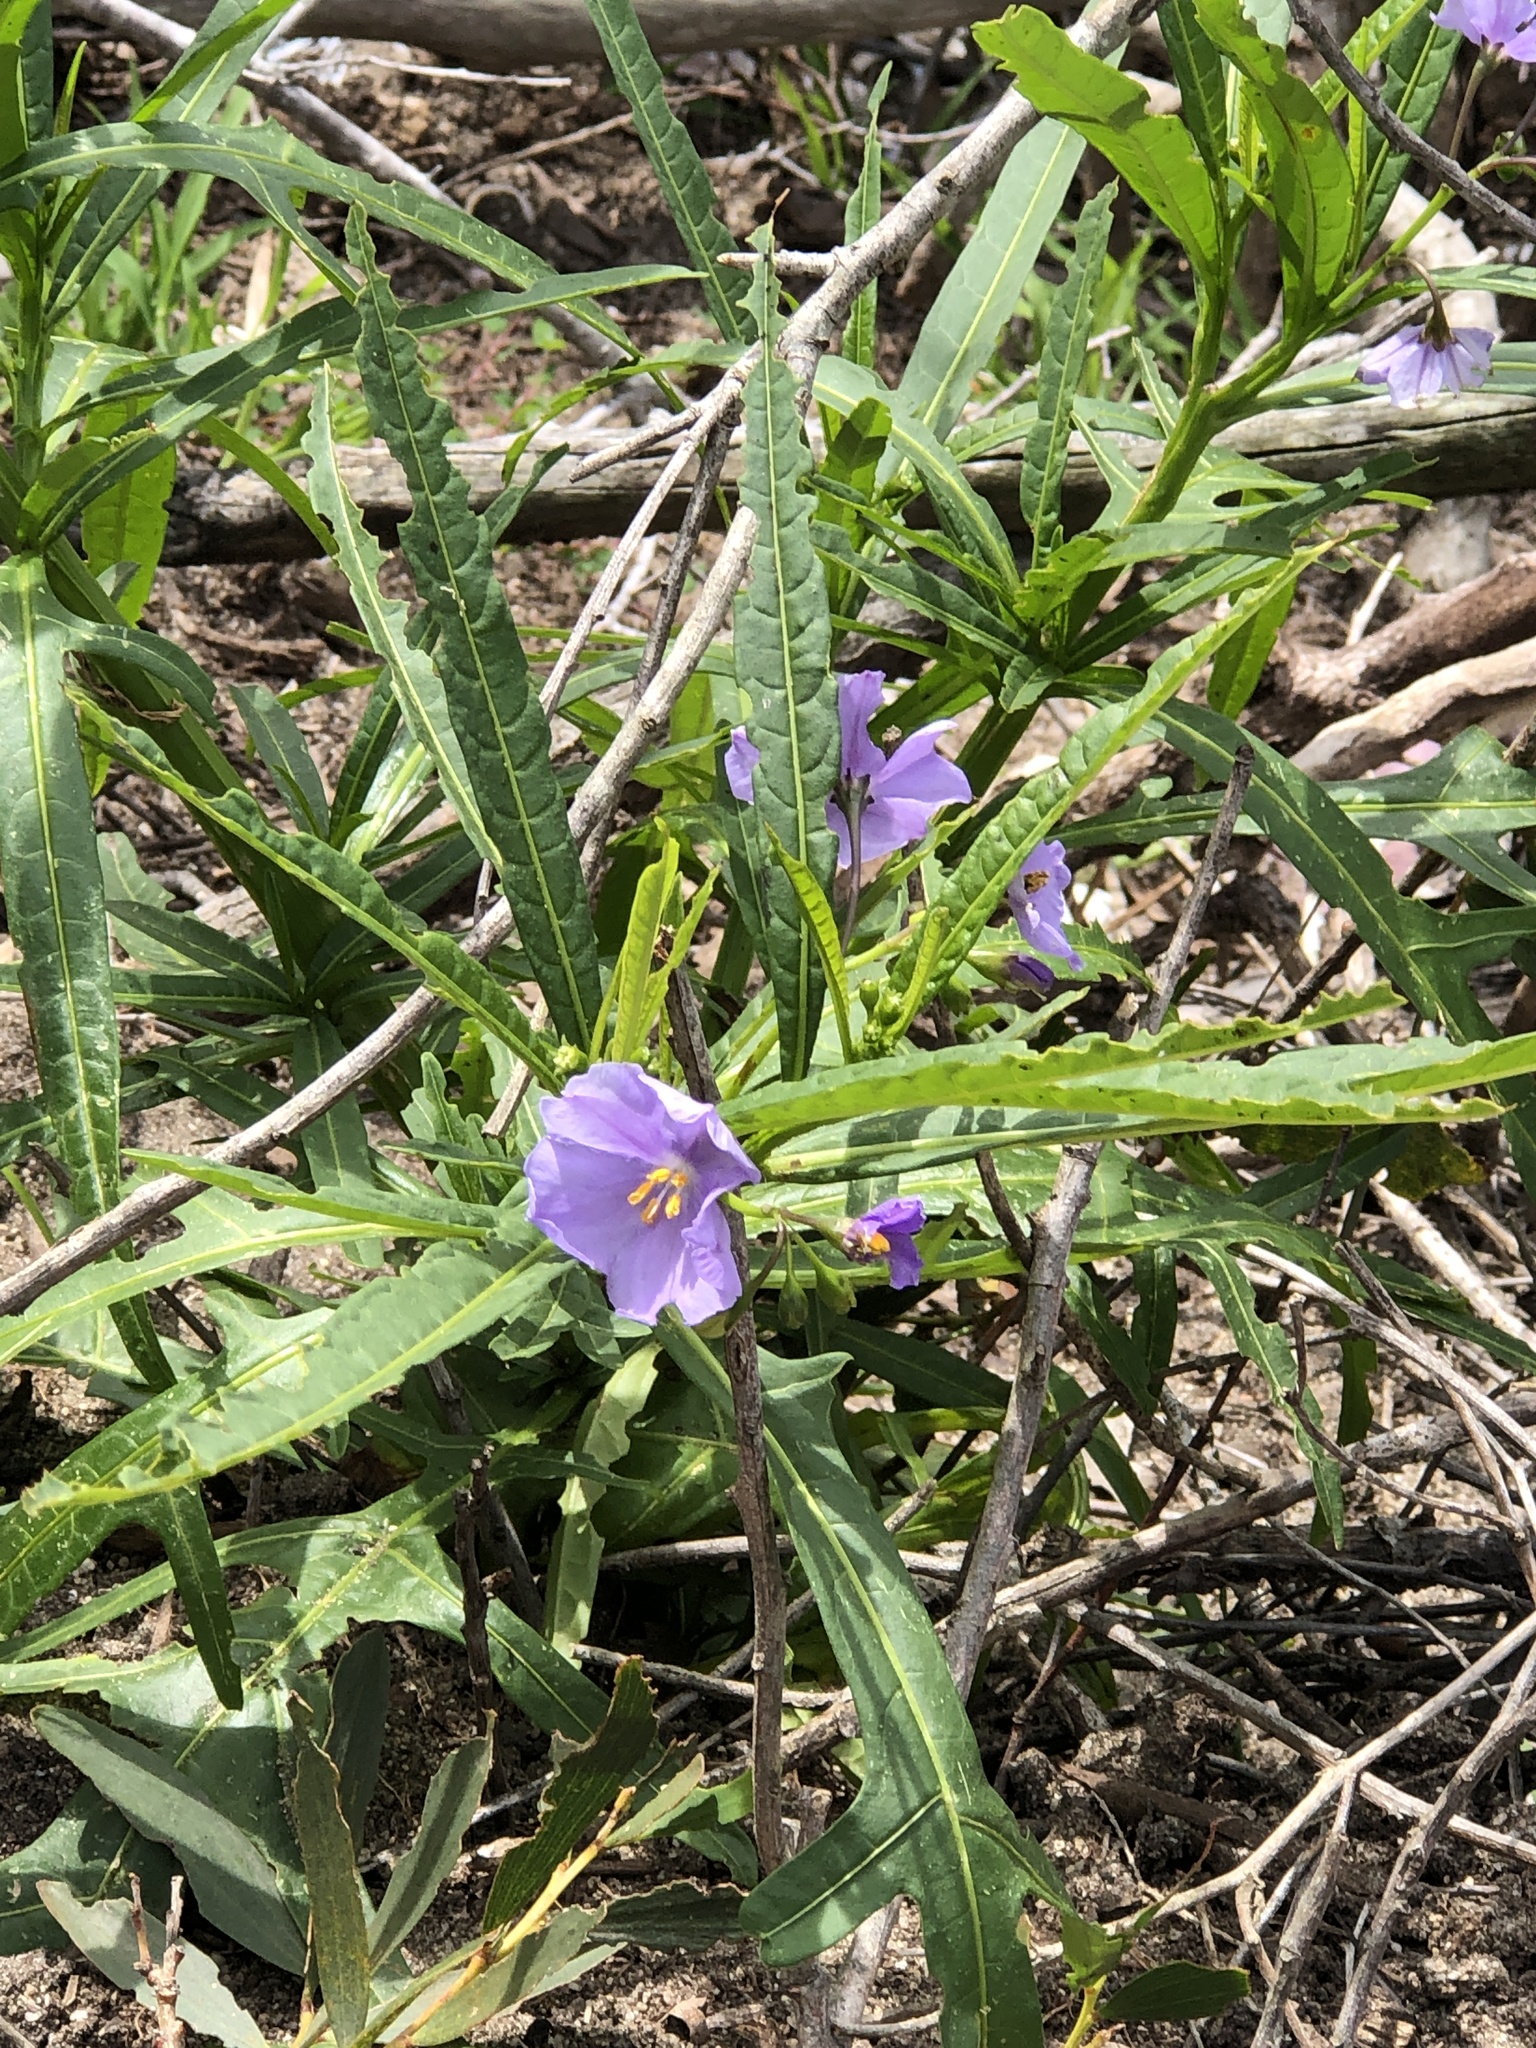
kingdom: Plantae
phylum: Tracheophyta
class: Magnoliopsida
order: Solanales
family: Solanaceae
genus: Solanum
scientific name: Solanum vescum
